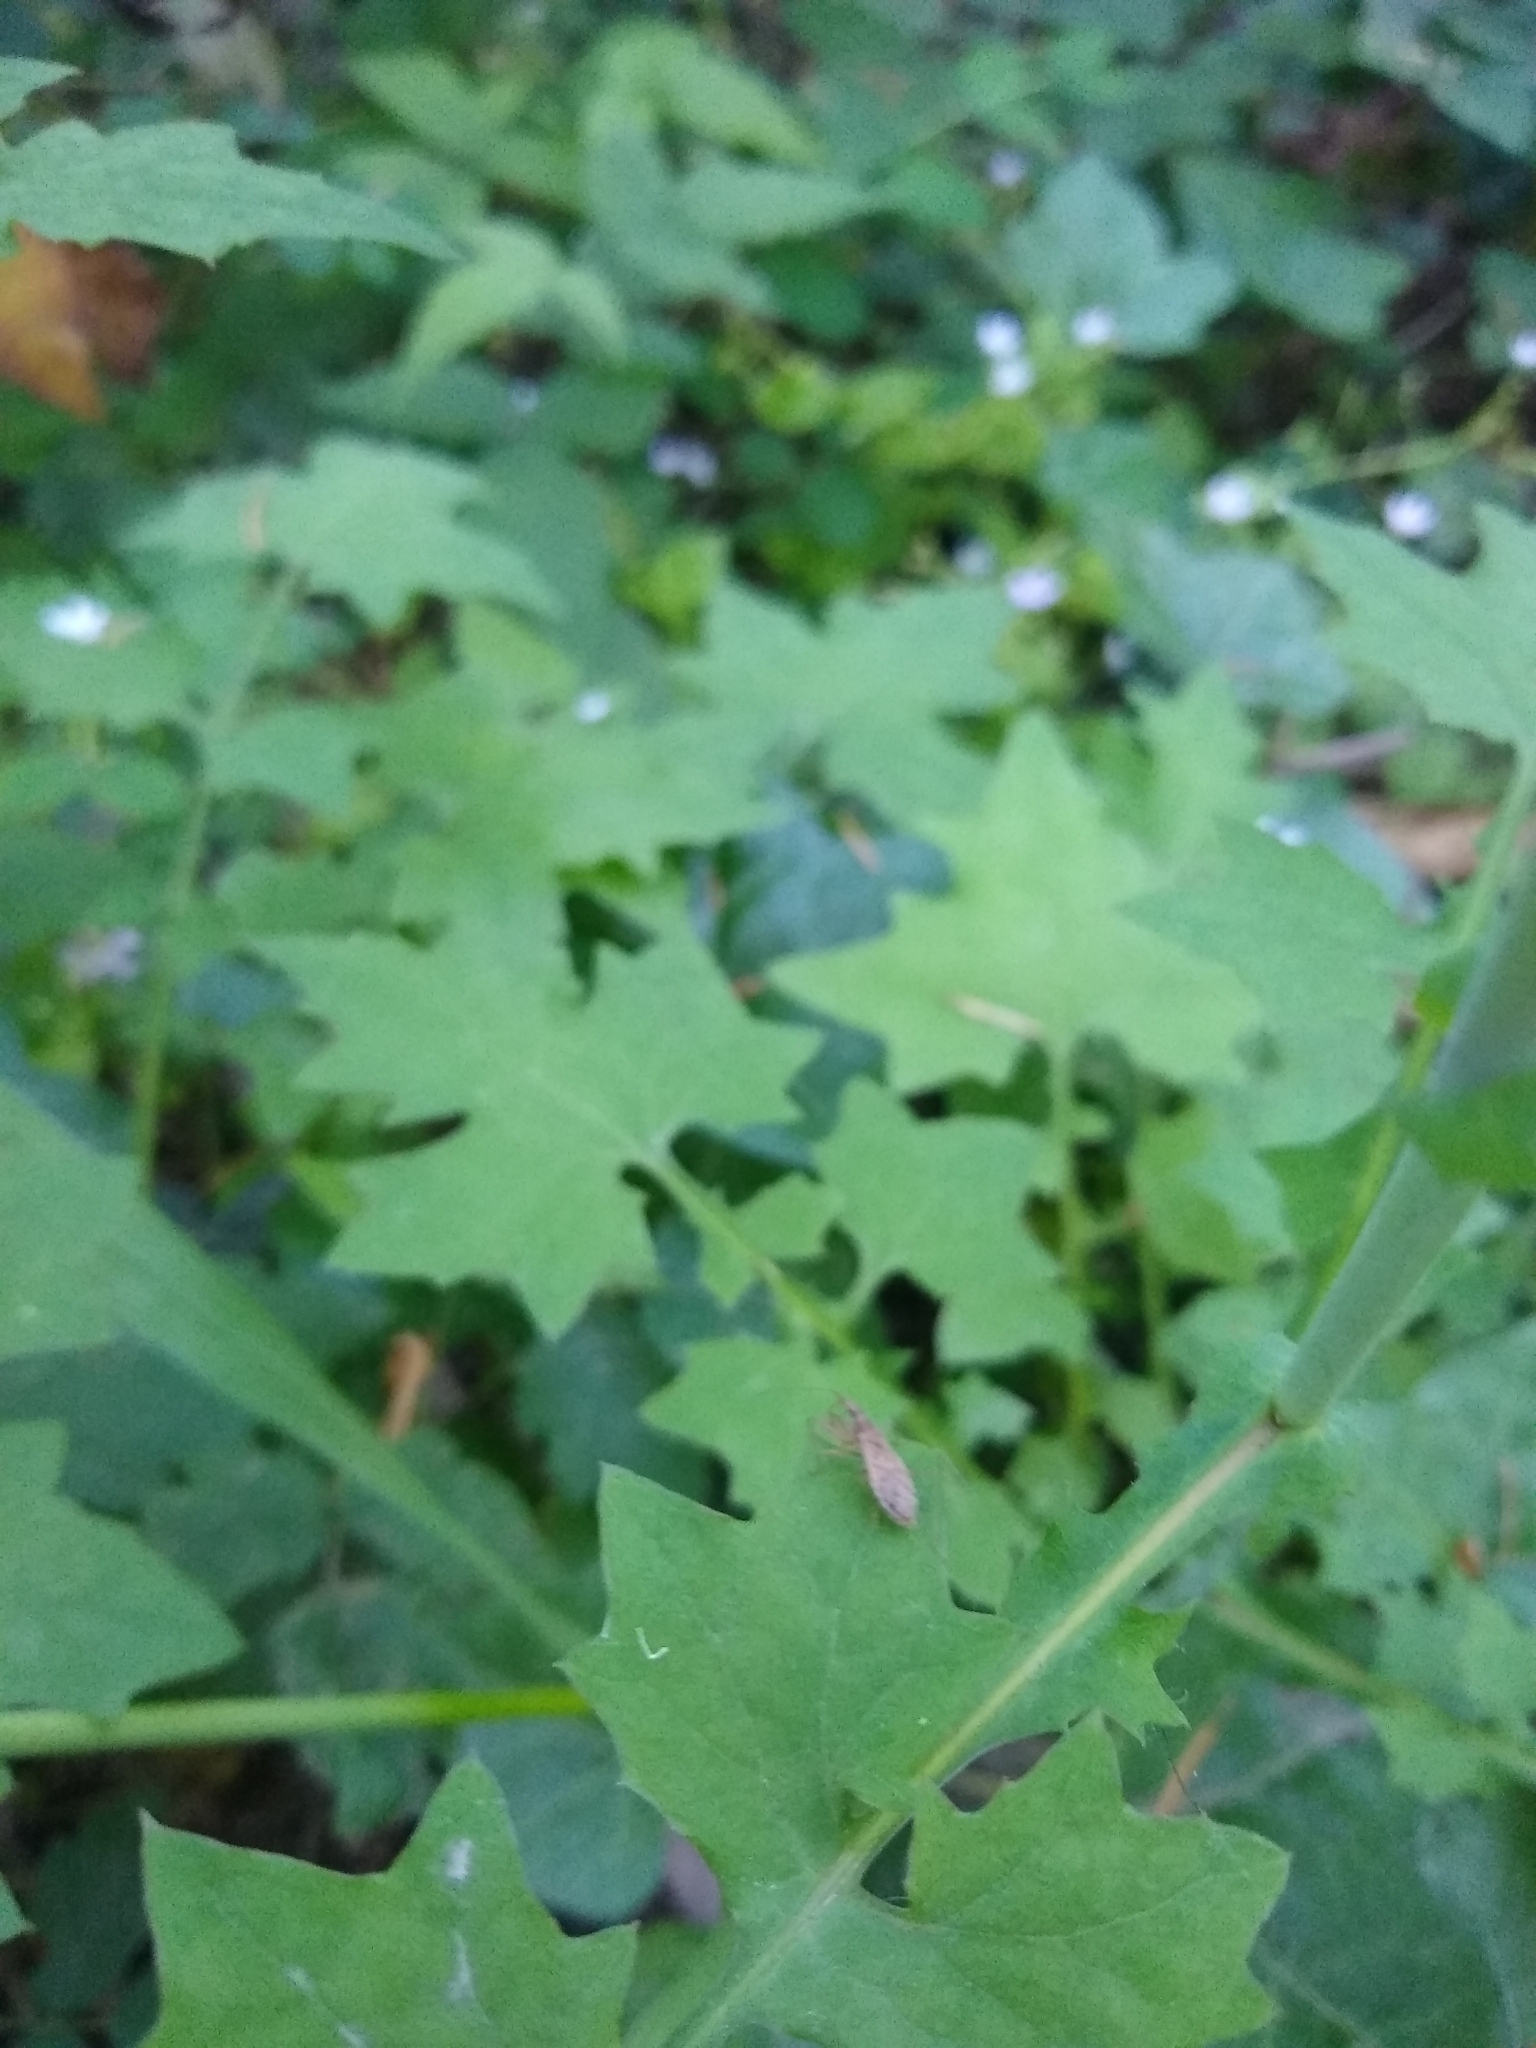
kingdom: Plantae
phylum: Tracheophyta
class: Magnoliopsida
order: Asterales
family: Asteraceae
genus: Mycelis
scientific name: Mycelis muralis
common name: Wall lettuce
